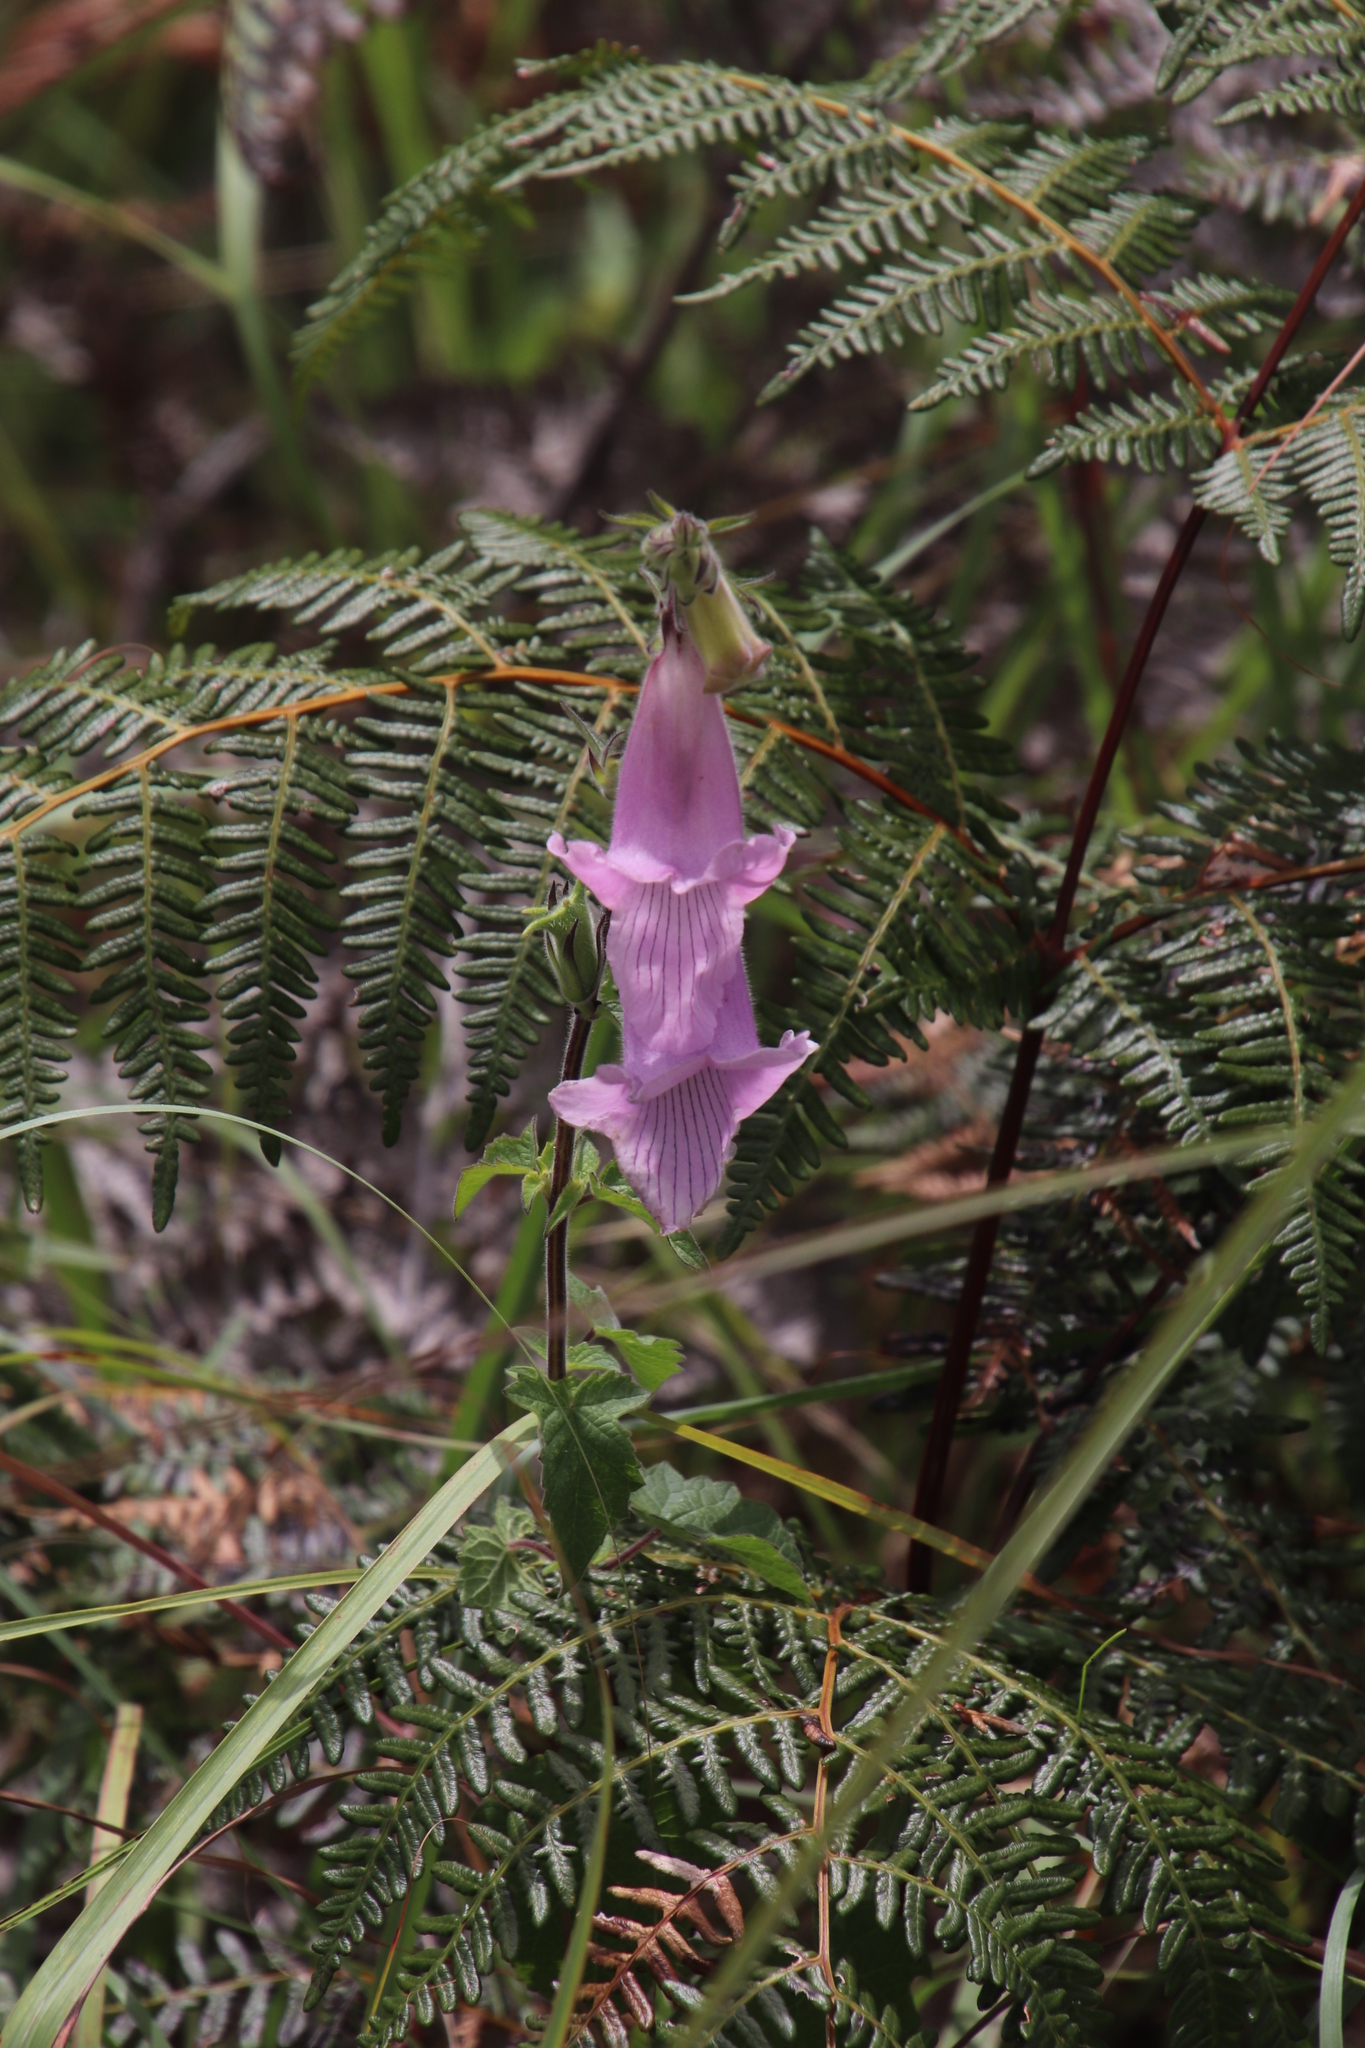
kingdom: Plantae
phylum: Tracheophyta
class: Magnoliopsida
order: Lamiales
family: Pedaliaceae
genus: Sesamum
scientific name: Sesamum trilobum
